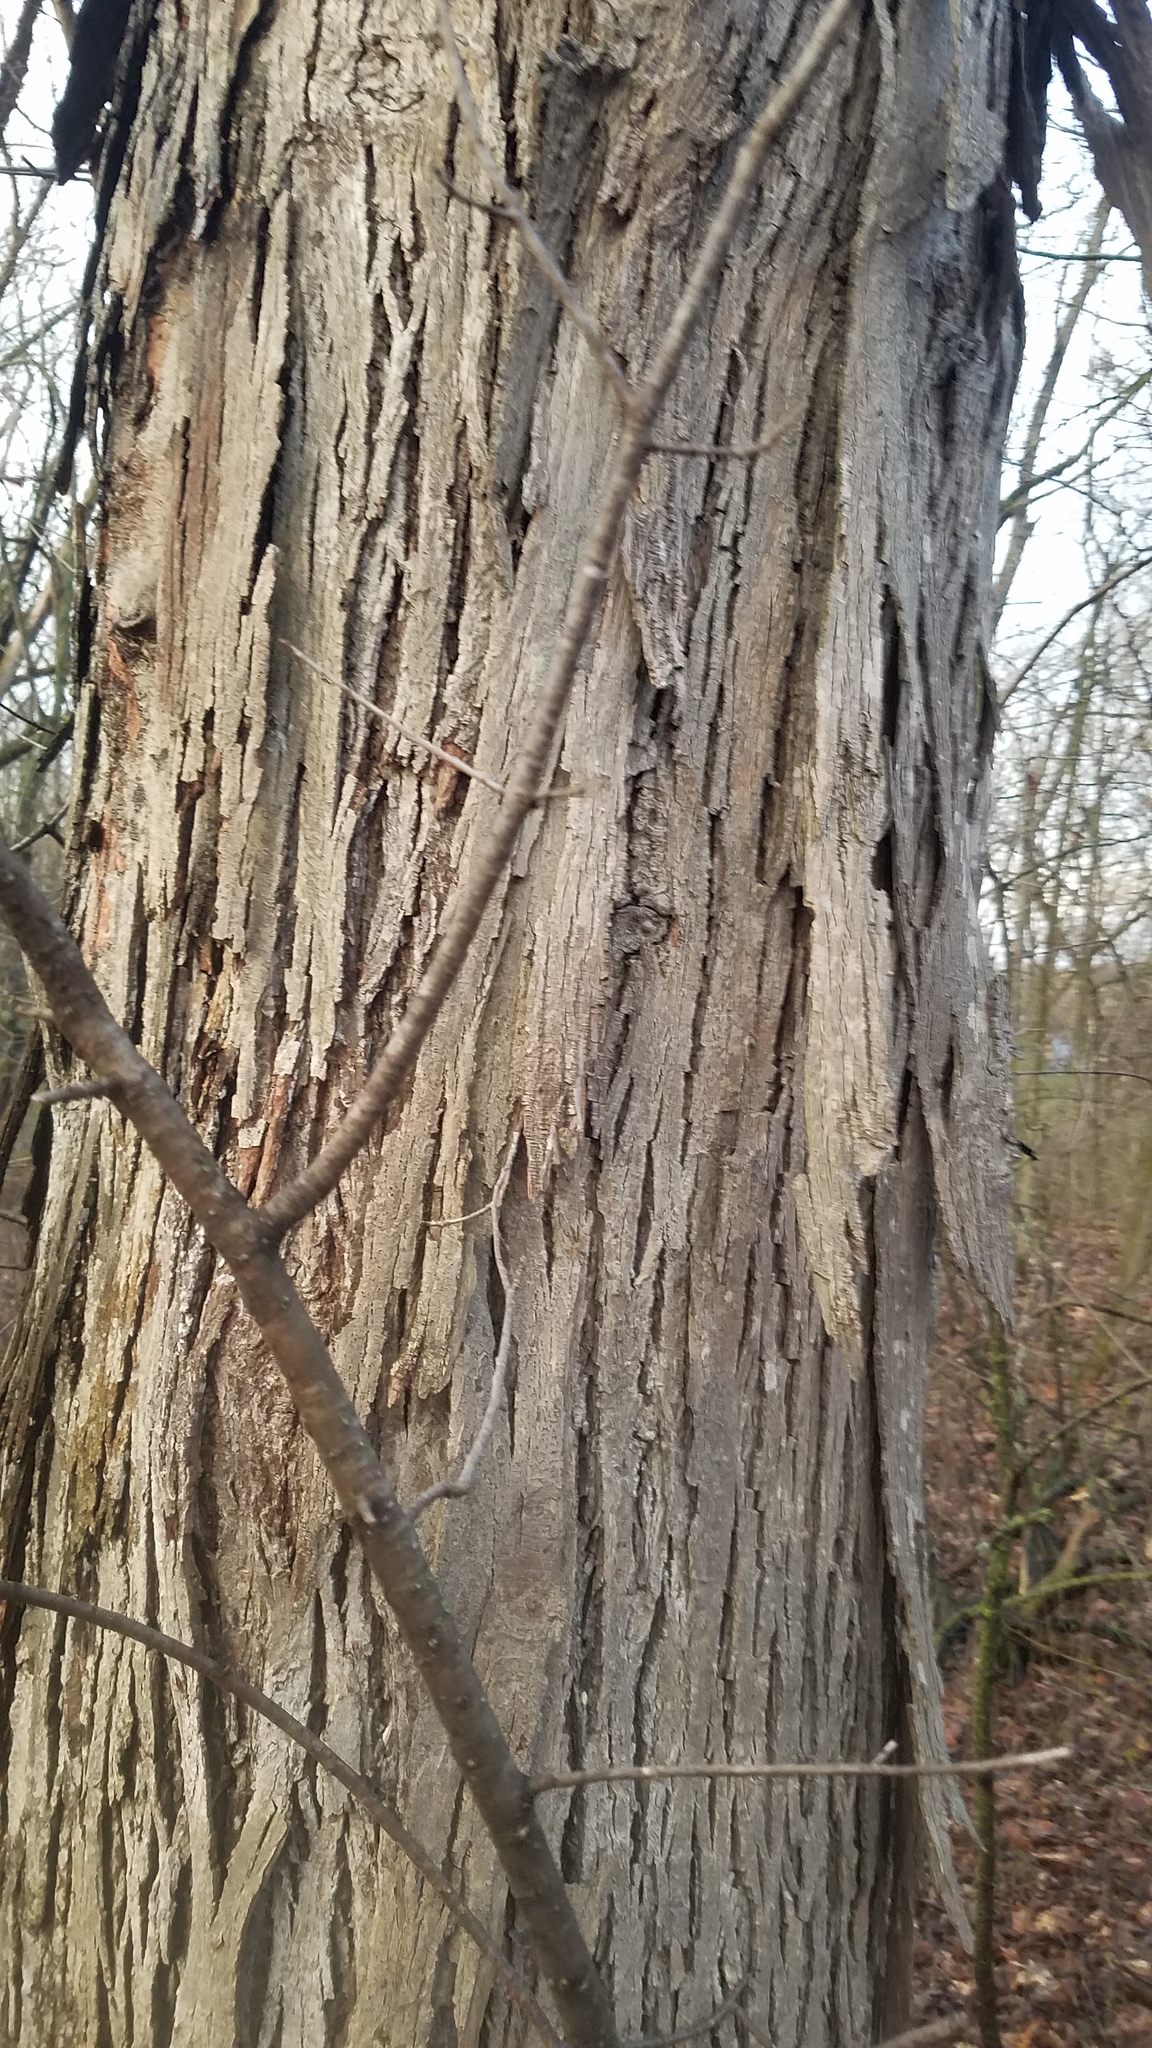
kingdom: Plantae
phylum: Tracheophyta
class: Magnoliopsida
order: Fagales
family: Juglandaceae
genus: Carya
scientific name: Carya ovata
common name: Shagbark hickory
